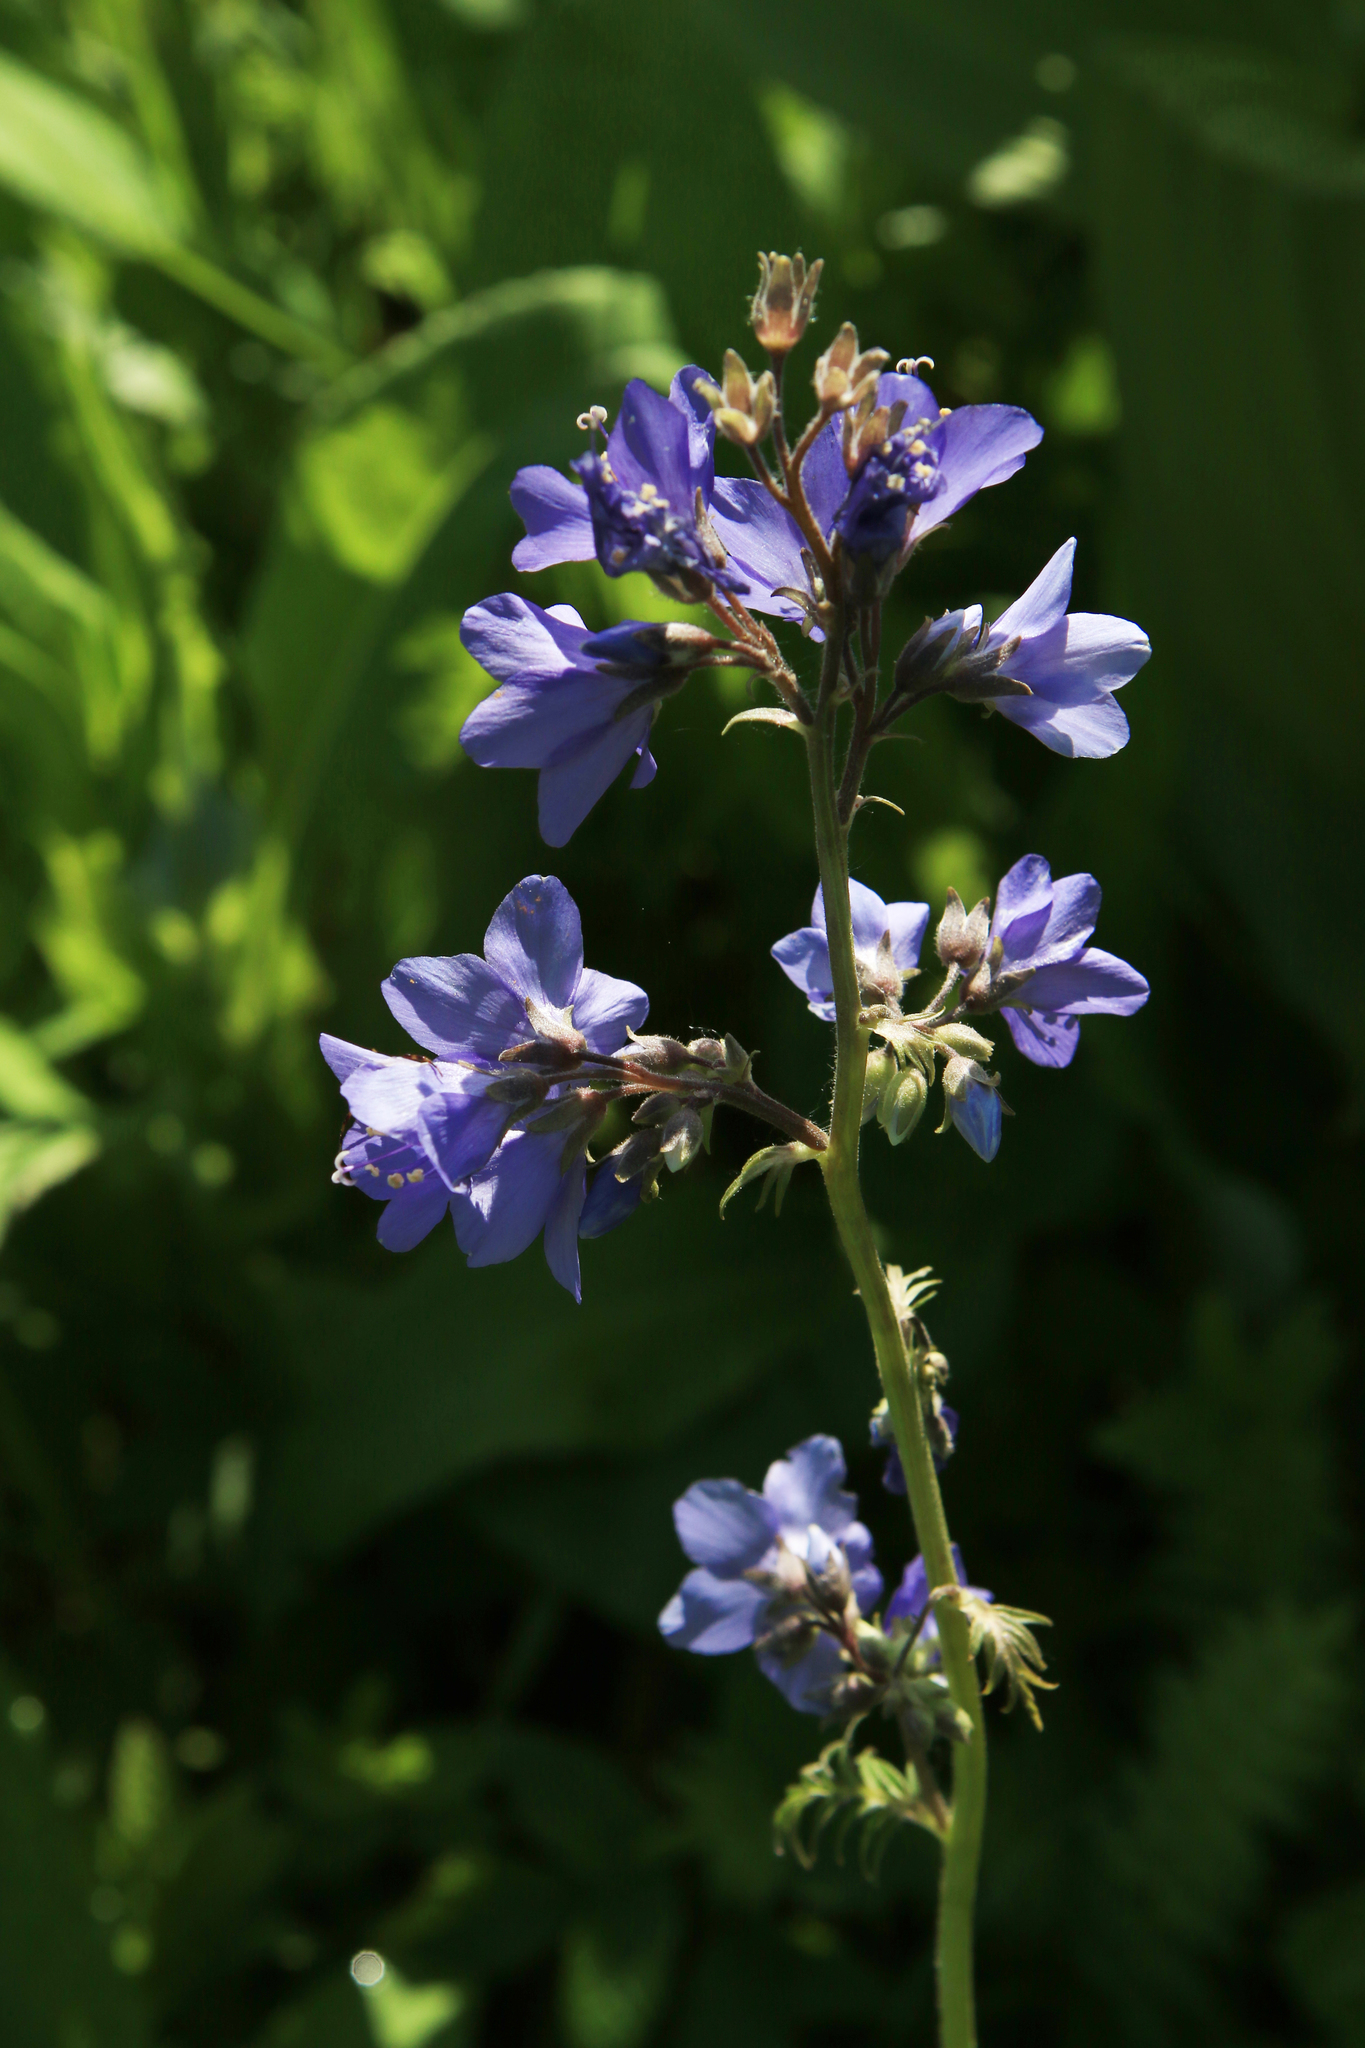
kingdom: Plantae
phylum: Tracheophyta
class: Magnoliopsida
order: Ericales
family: Polemoniaceae
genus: Polemonium
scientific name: Polemonium caeruleum
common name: Jacob's-ladder
